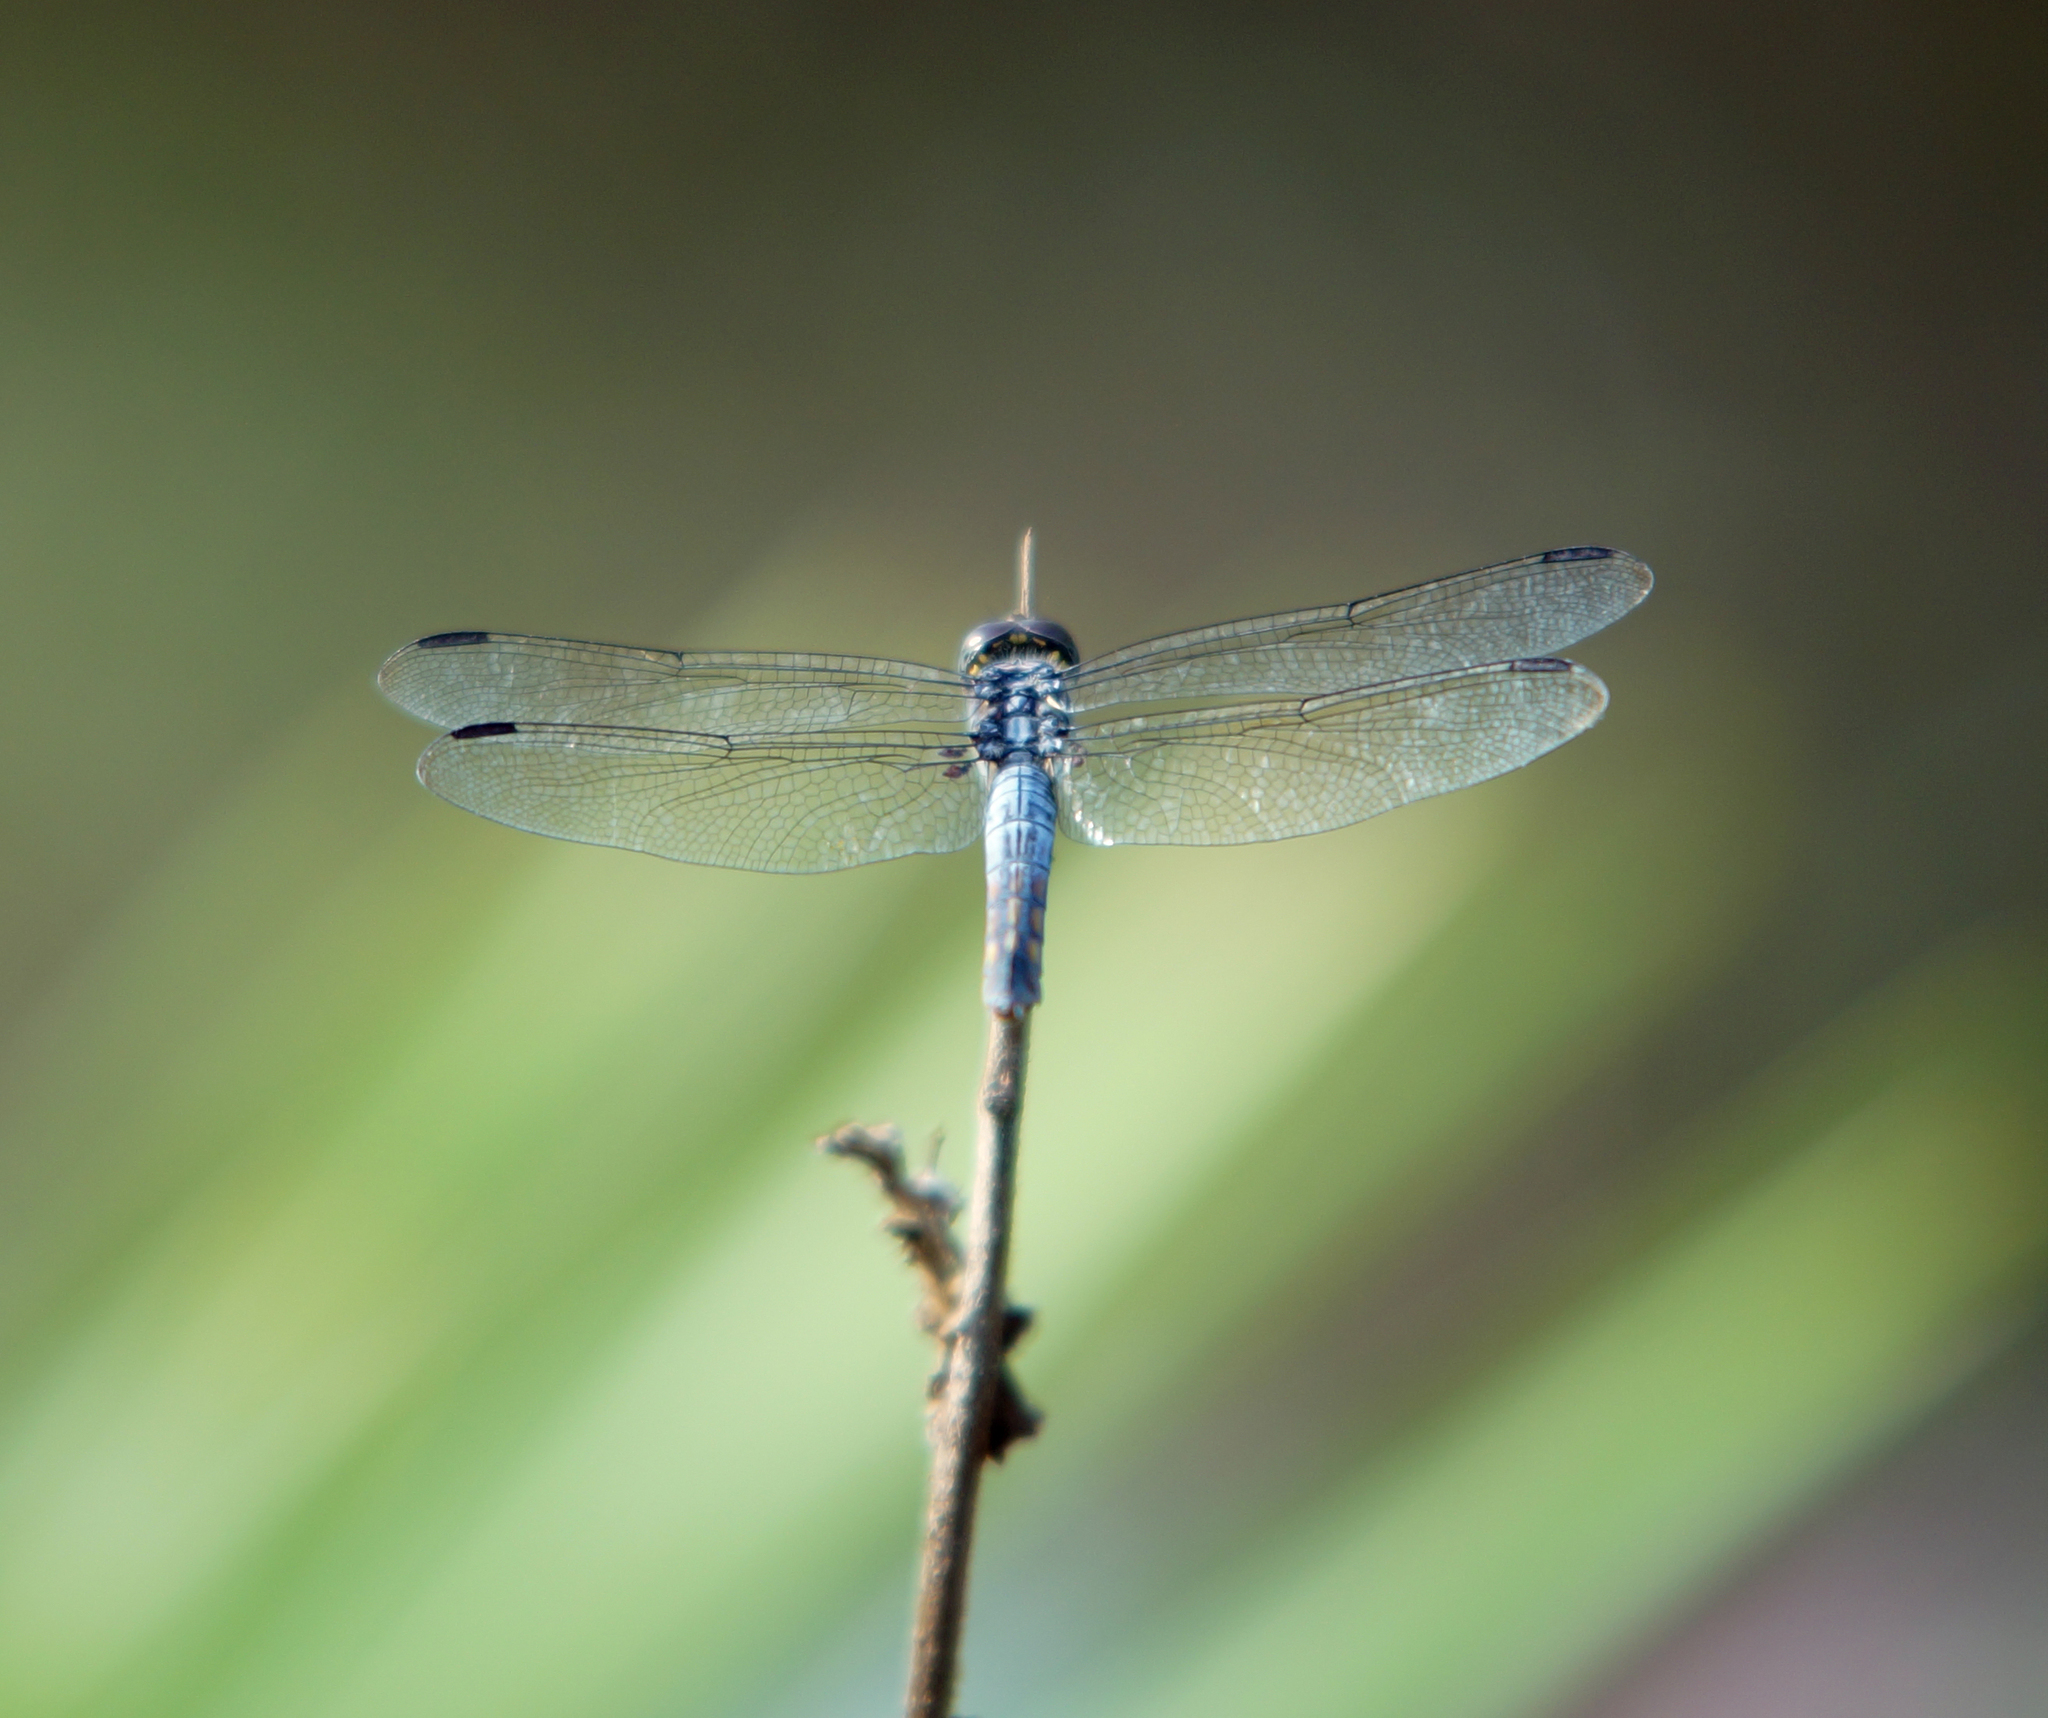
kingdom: Animalia
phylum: Arthropoda
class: Insecta
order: Odonata
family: Libellulidae
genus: Potamarcha
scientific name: Potamarcha congener
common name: Blue chaser
